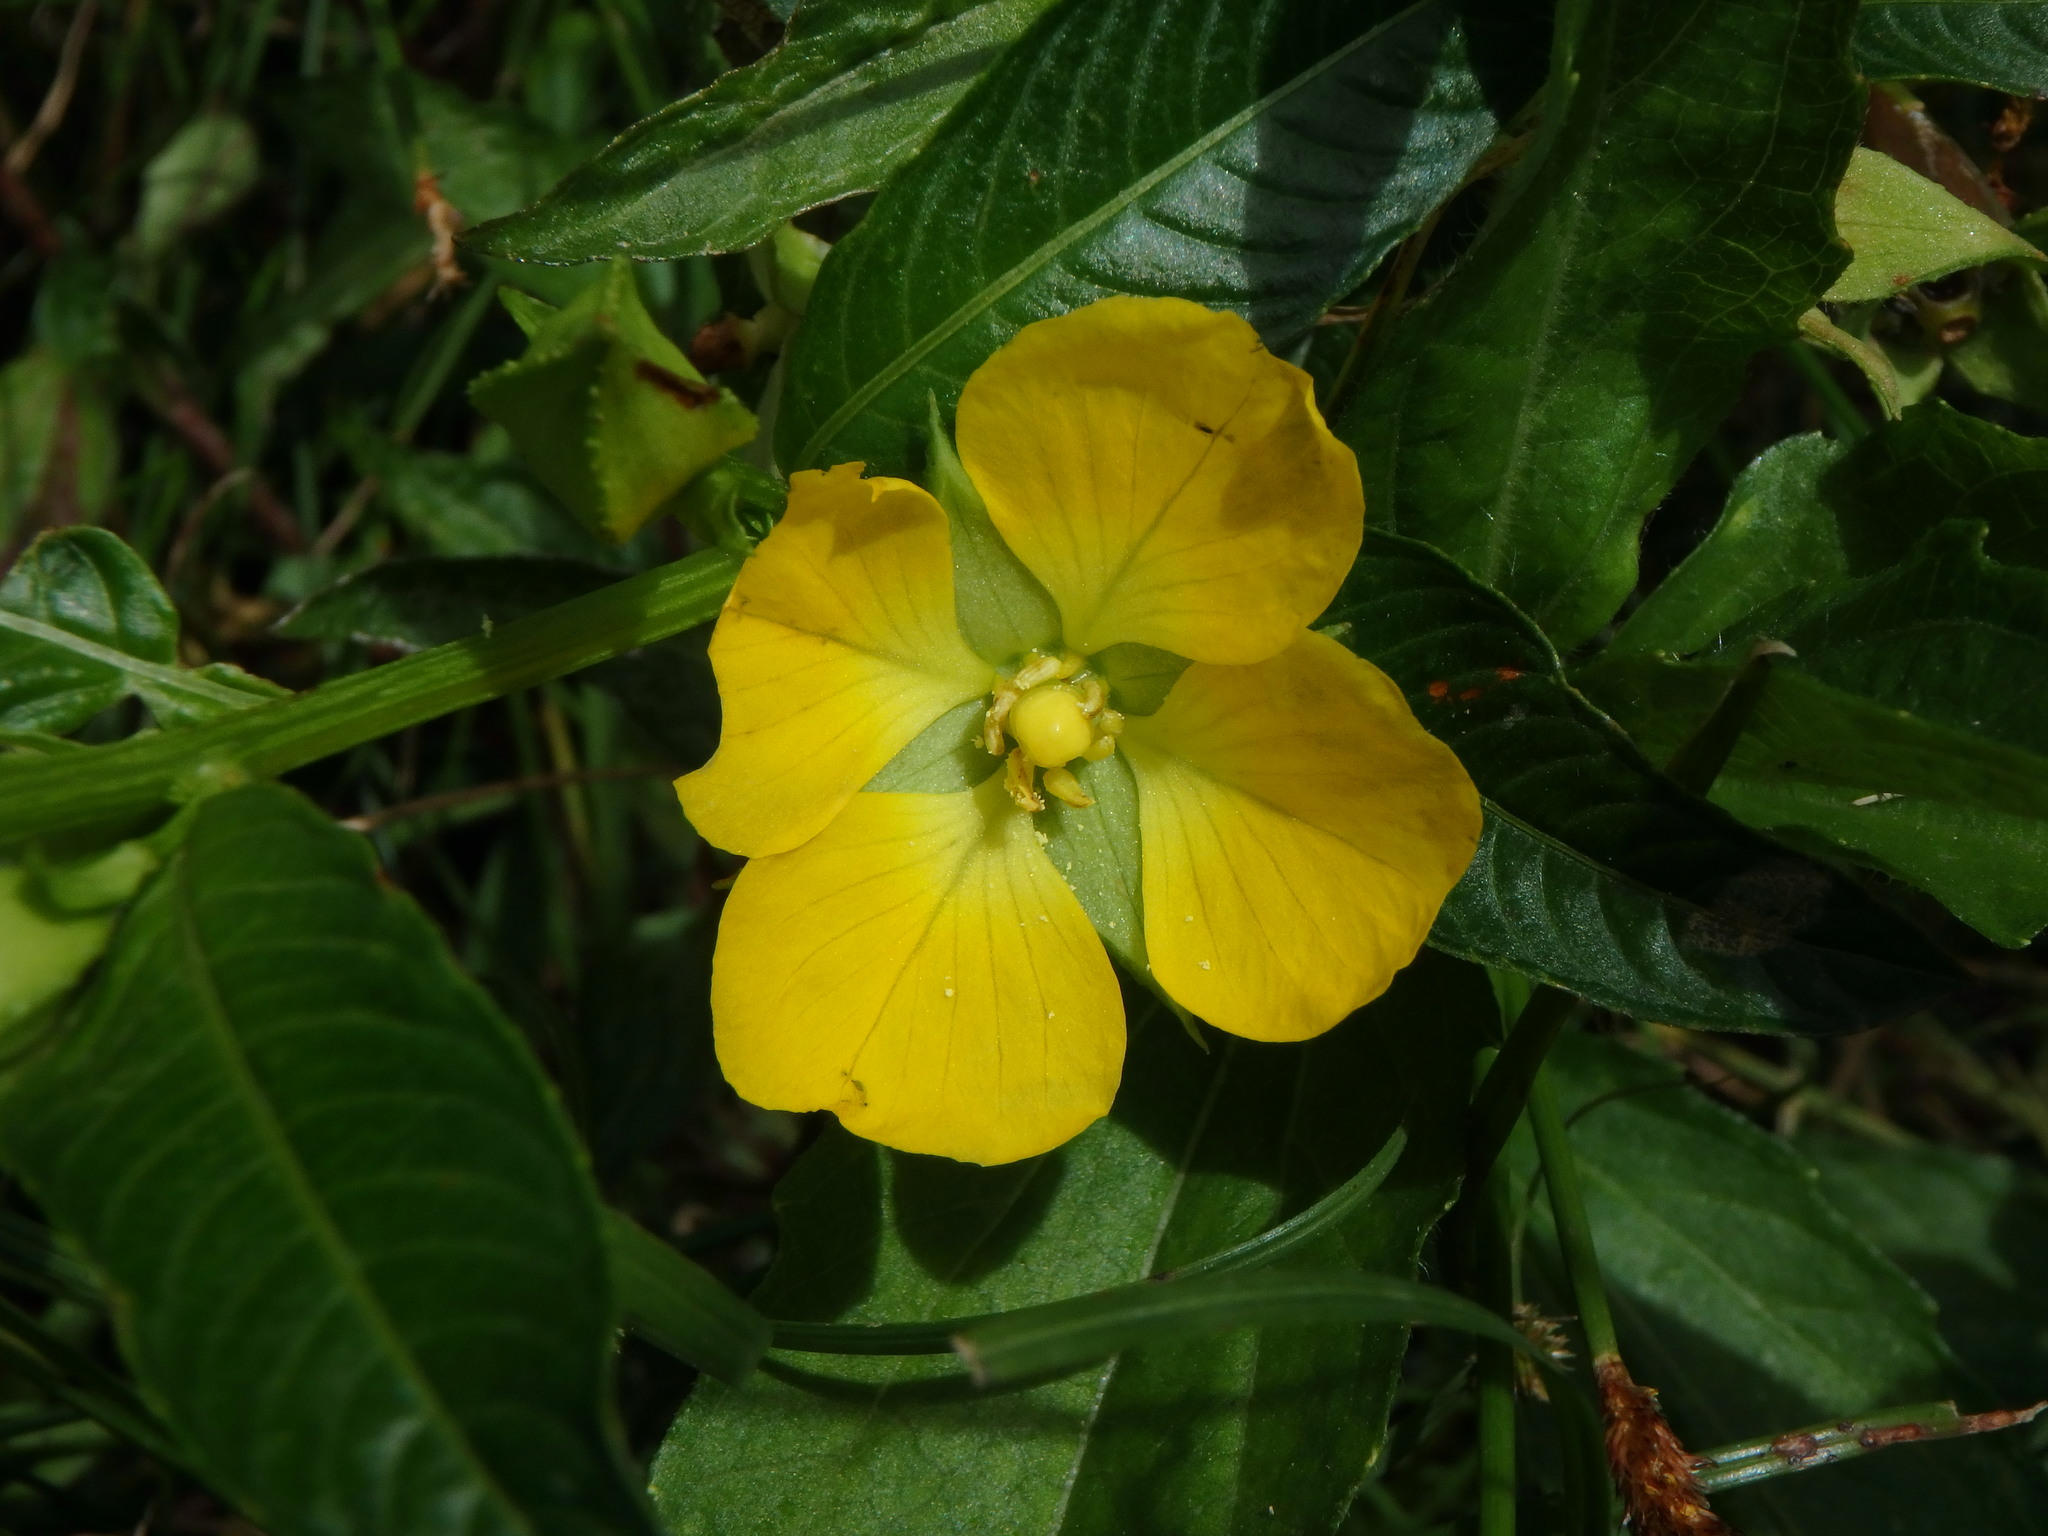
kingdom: Plantae
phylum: Tracheophyta
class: Magnoliopsida
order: Myrtales
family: Onagraceae
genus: Ludwigia
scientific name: Ludwigia peruviana
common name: Peruvian primrose-willow
